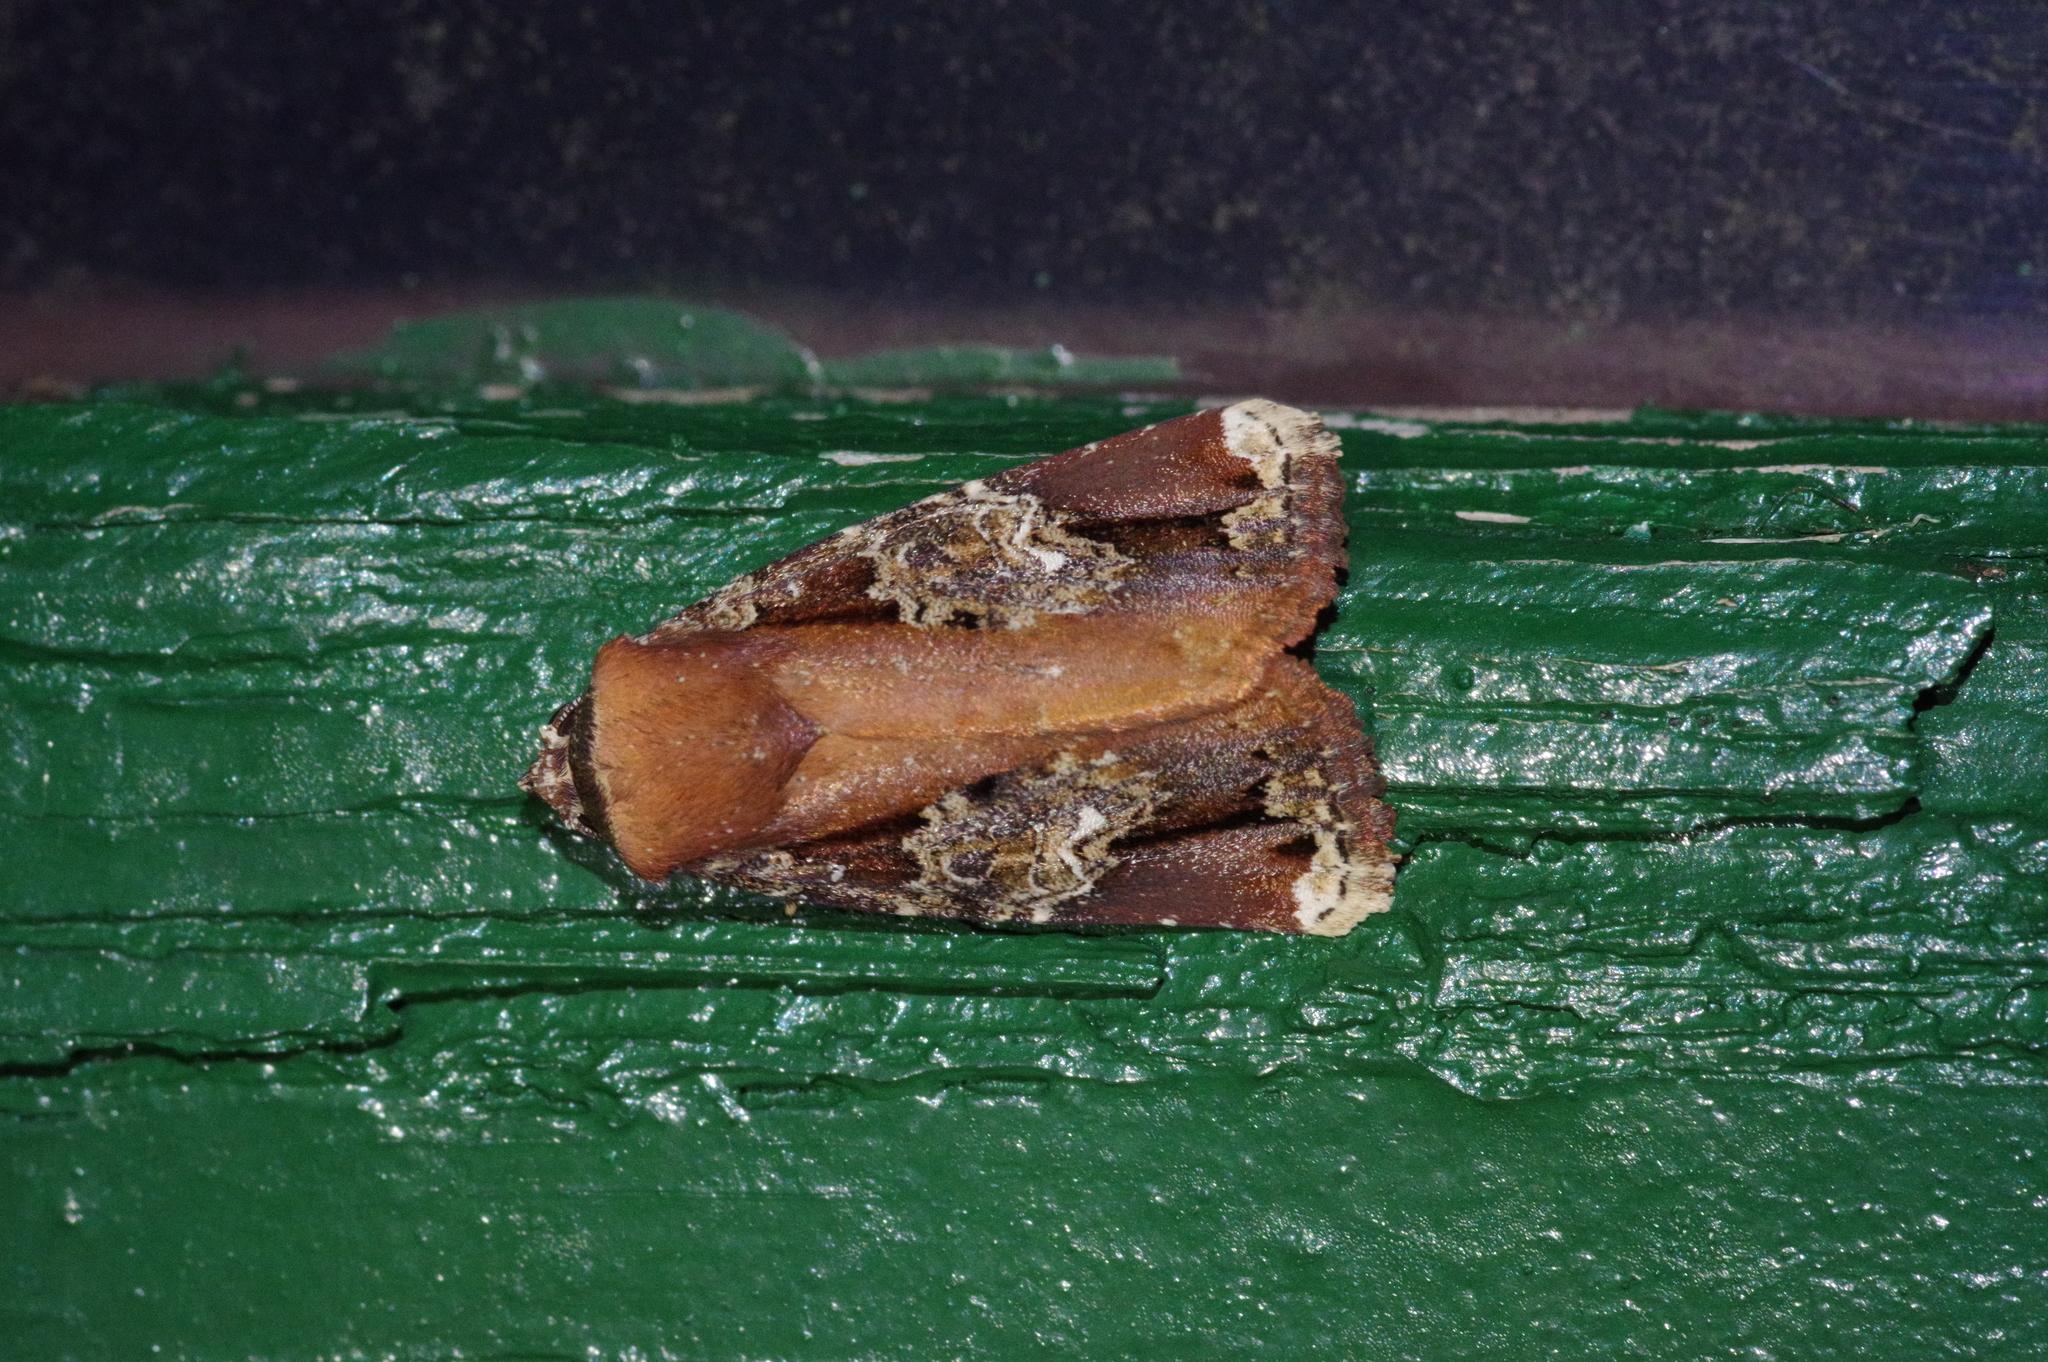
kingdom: Animalia
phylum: Arthropoda
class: Insecta
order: Lepidoptera
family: Noctuidae
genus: Callyna
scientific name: Callyna contracta
